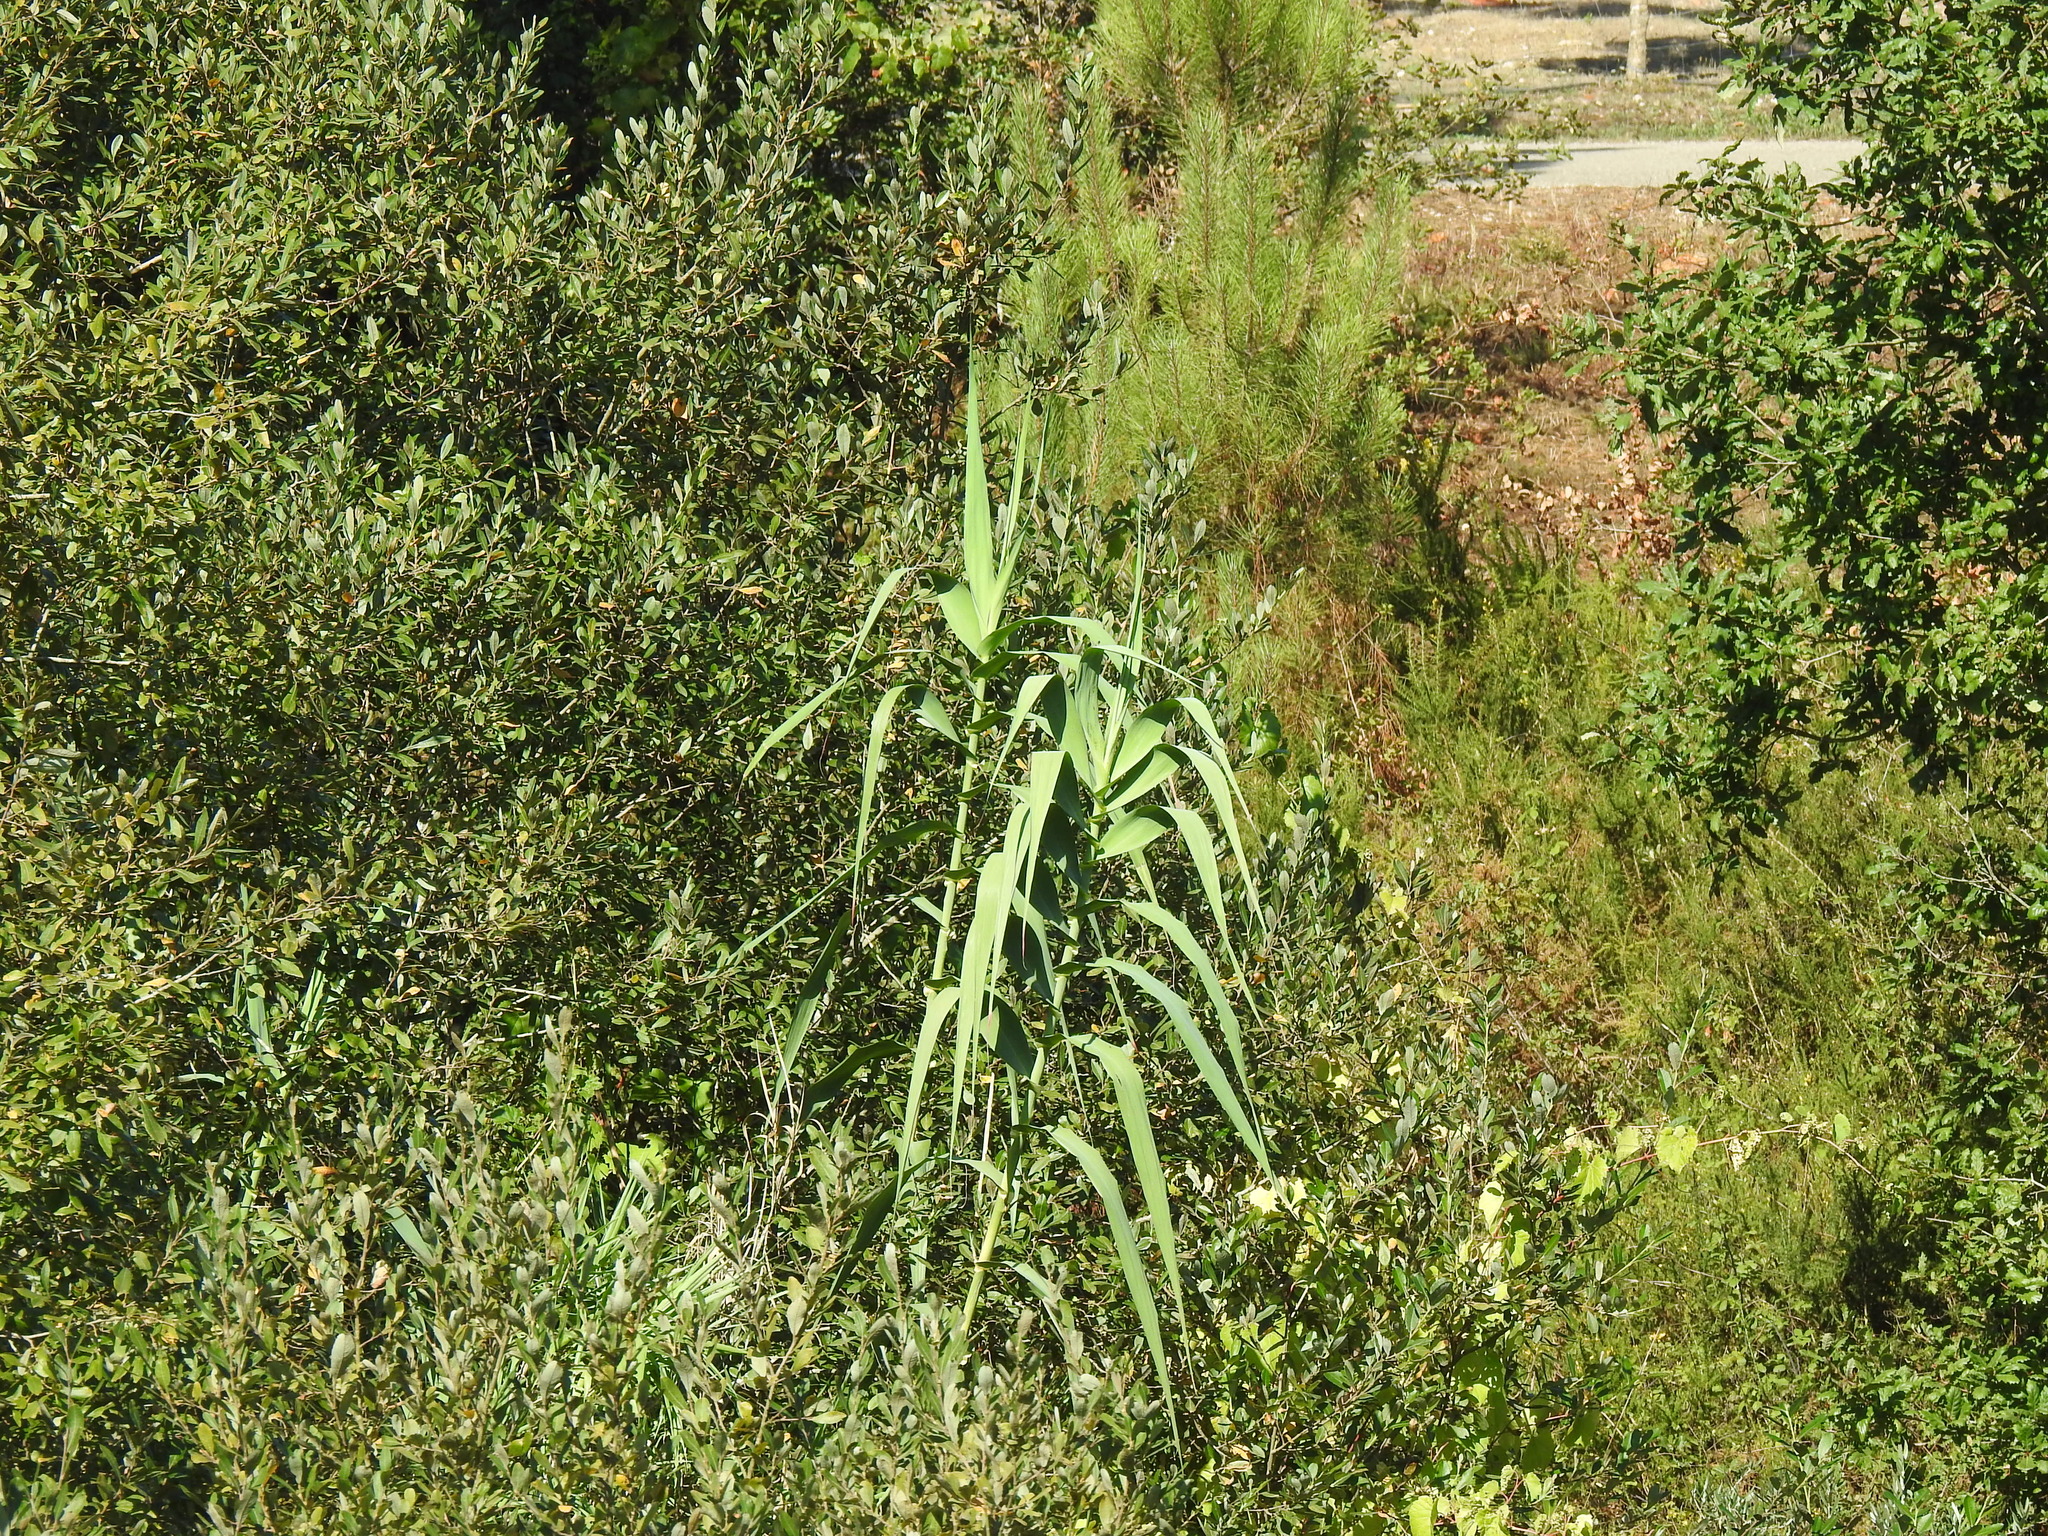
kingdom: Plantae
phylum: Tracheophyta
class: Liliopsida
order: Poales
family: Poaceae
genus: Arundo
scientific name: Arundo donax
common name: Giant reed
